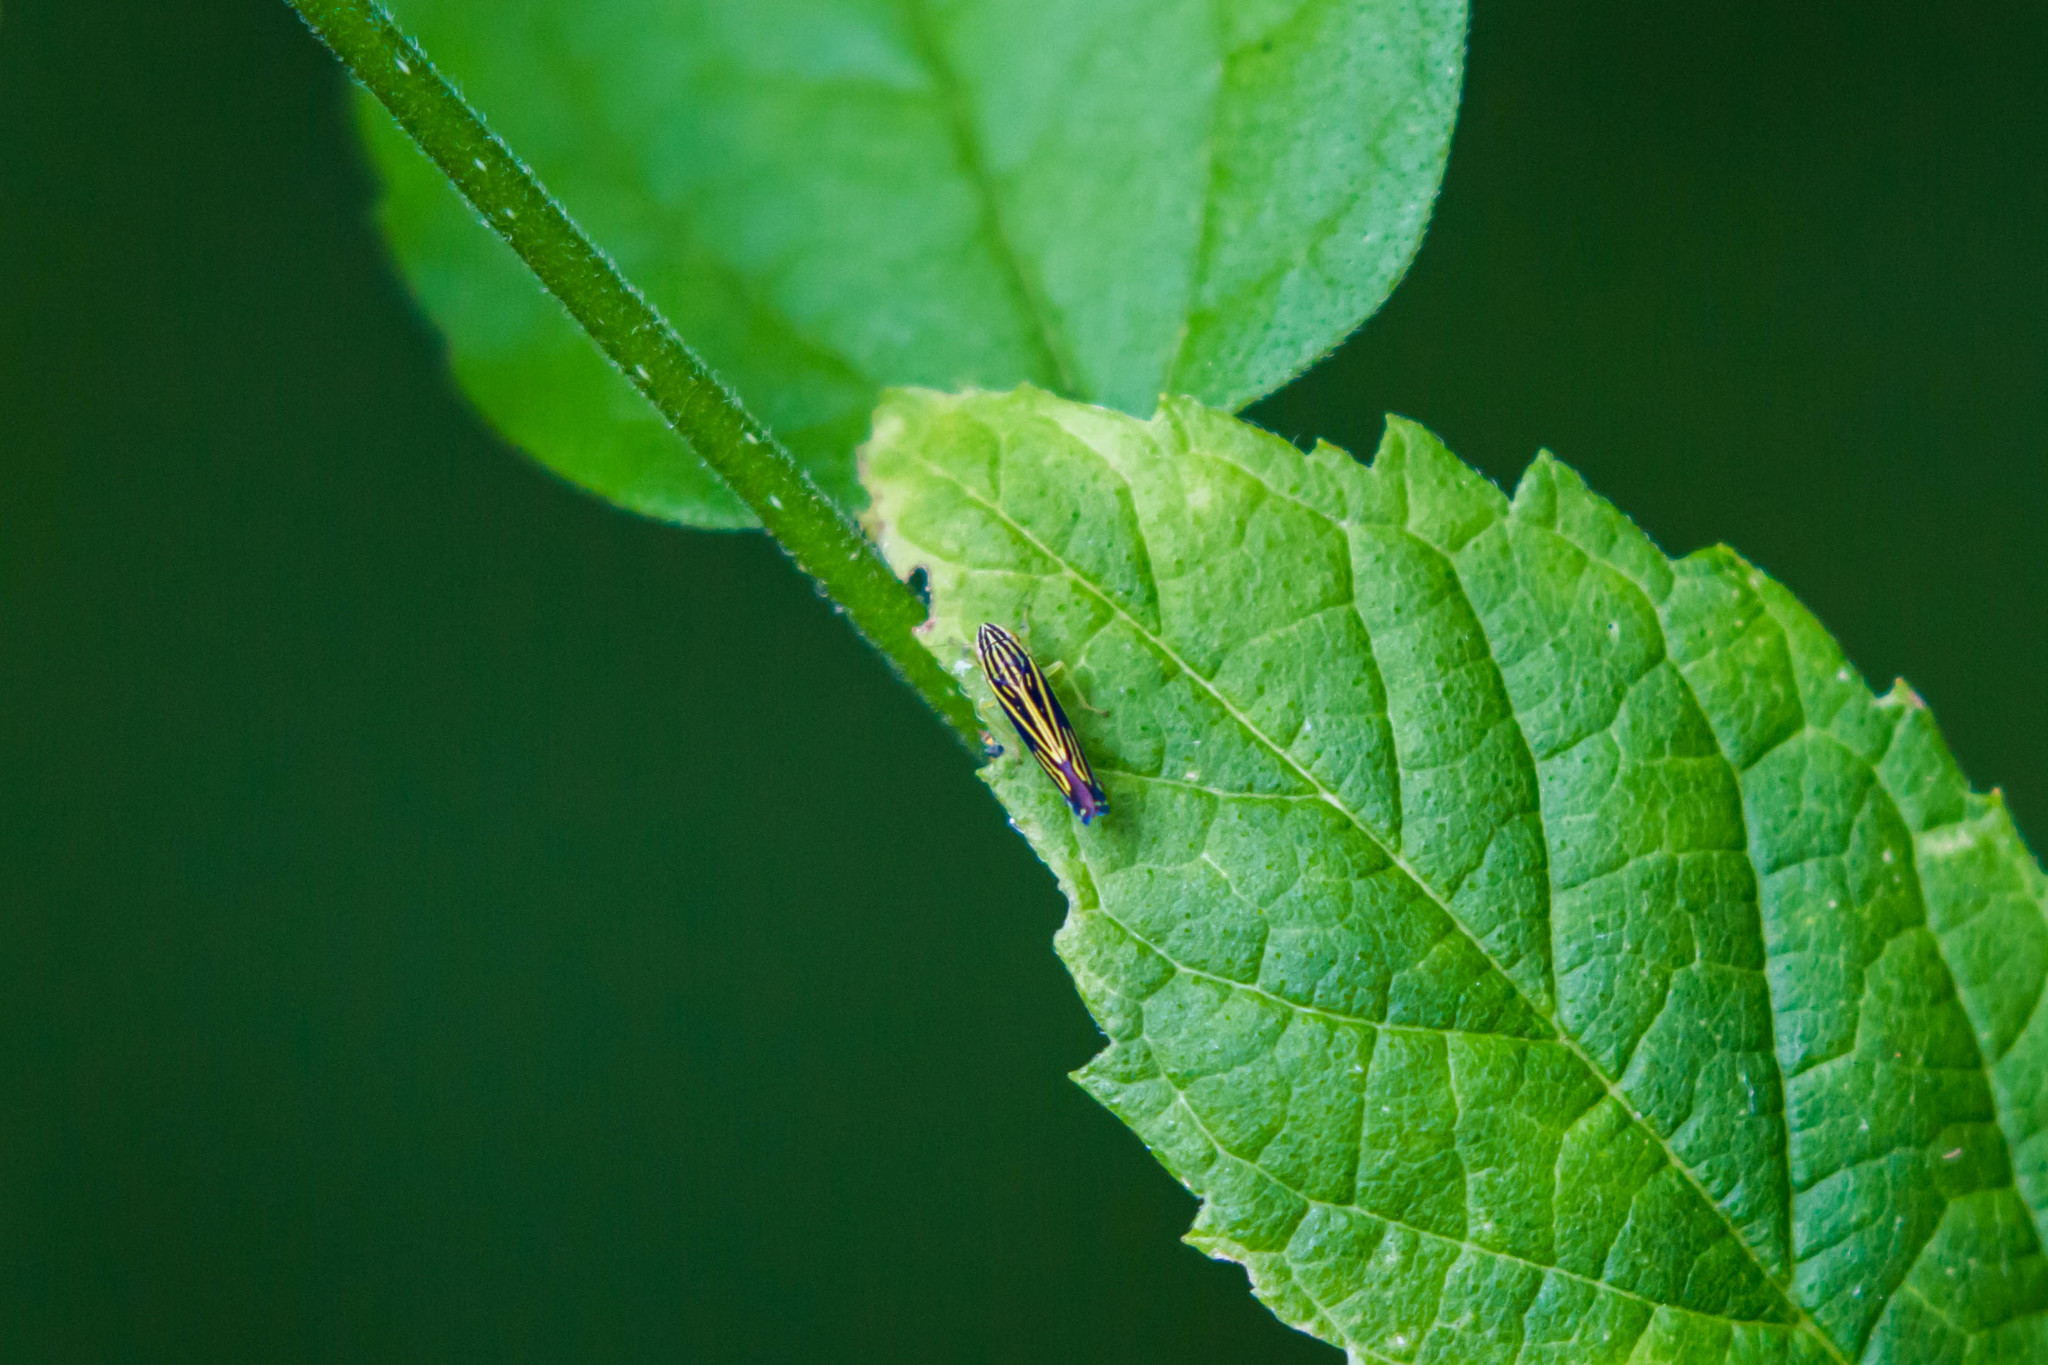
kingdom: Animalia
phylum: Arthropoda
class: Insecta
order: Hemiptera
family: Cicadellidae
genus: Sibovia
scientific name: Sibovia occatoria
